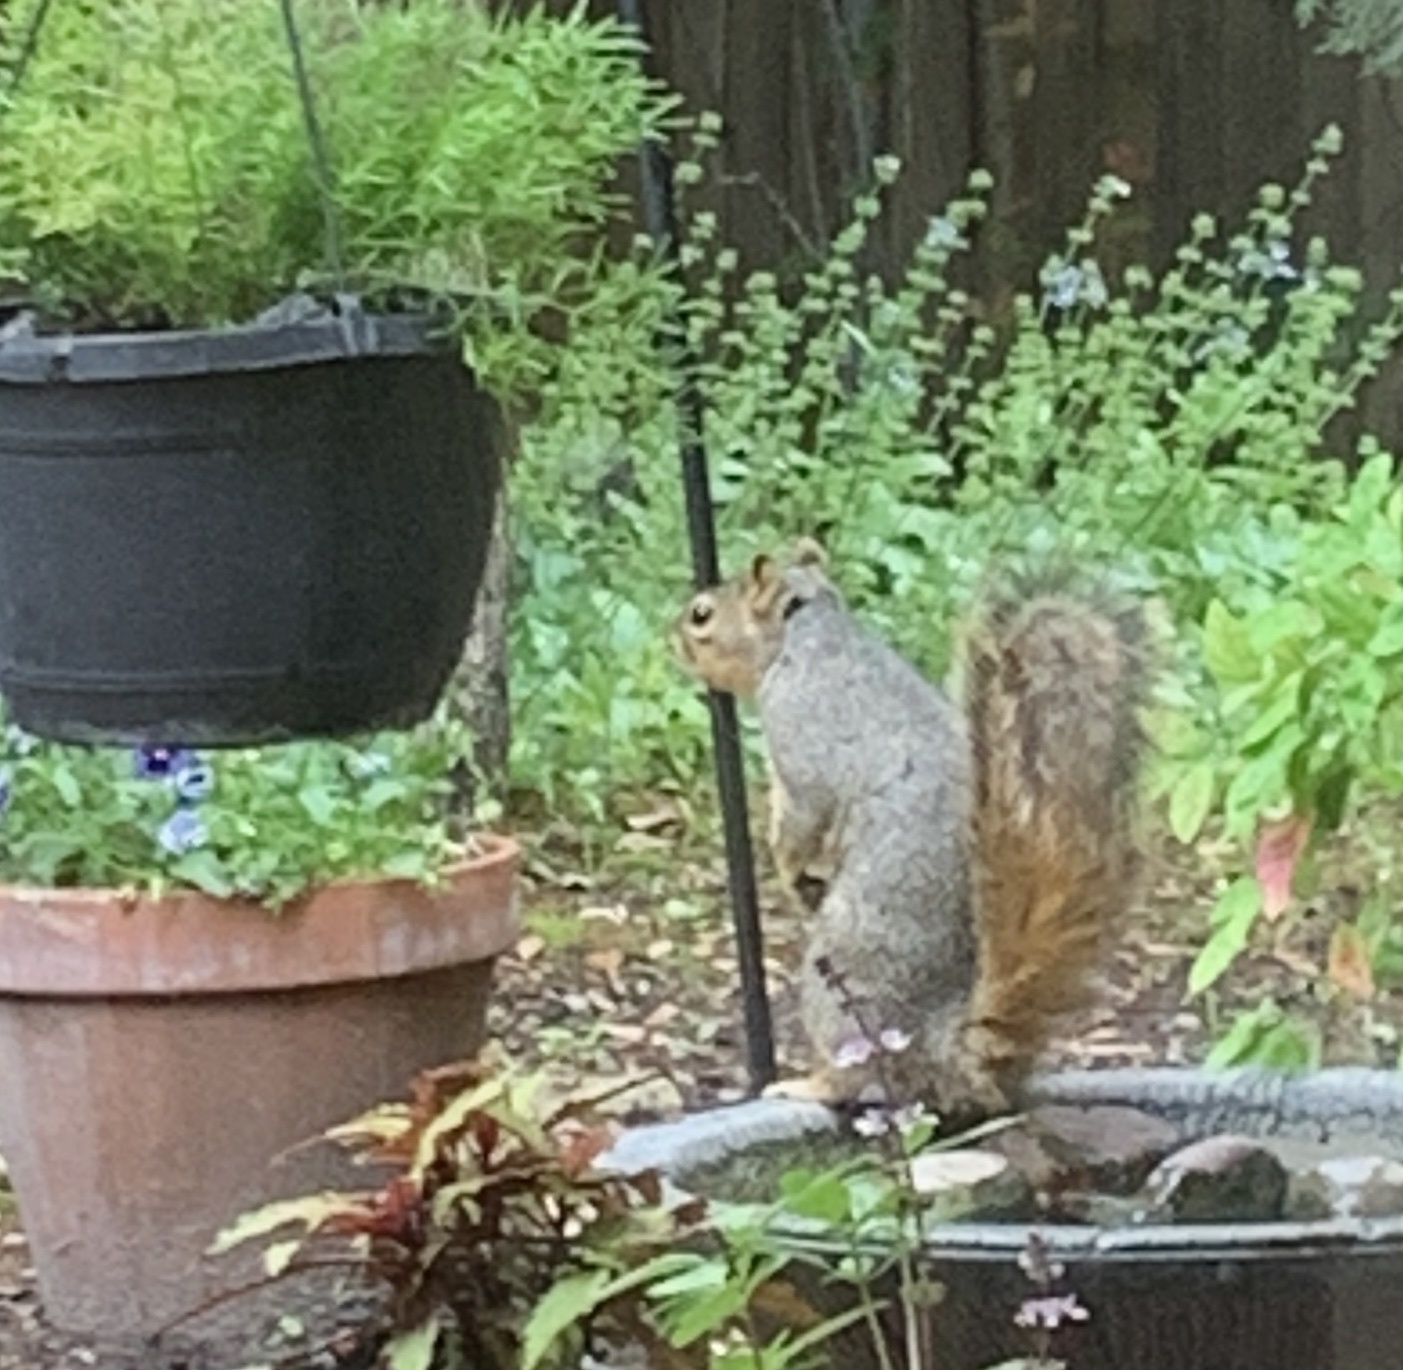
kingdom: Animalia
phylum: Chordata
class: Mammalia
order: Rodentia
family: Sciuridae
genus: Sciurus
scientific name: Sciurus niger
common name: Fox squirrel
